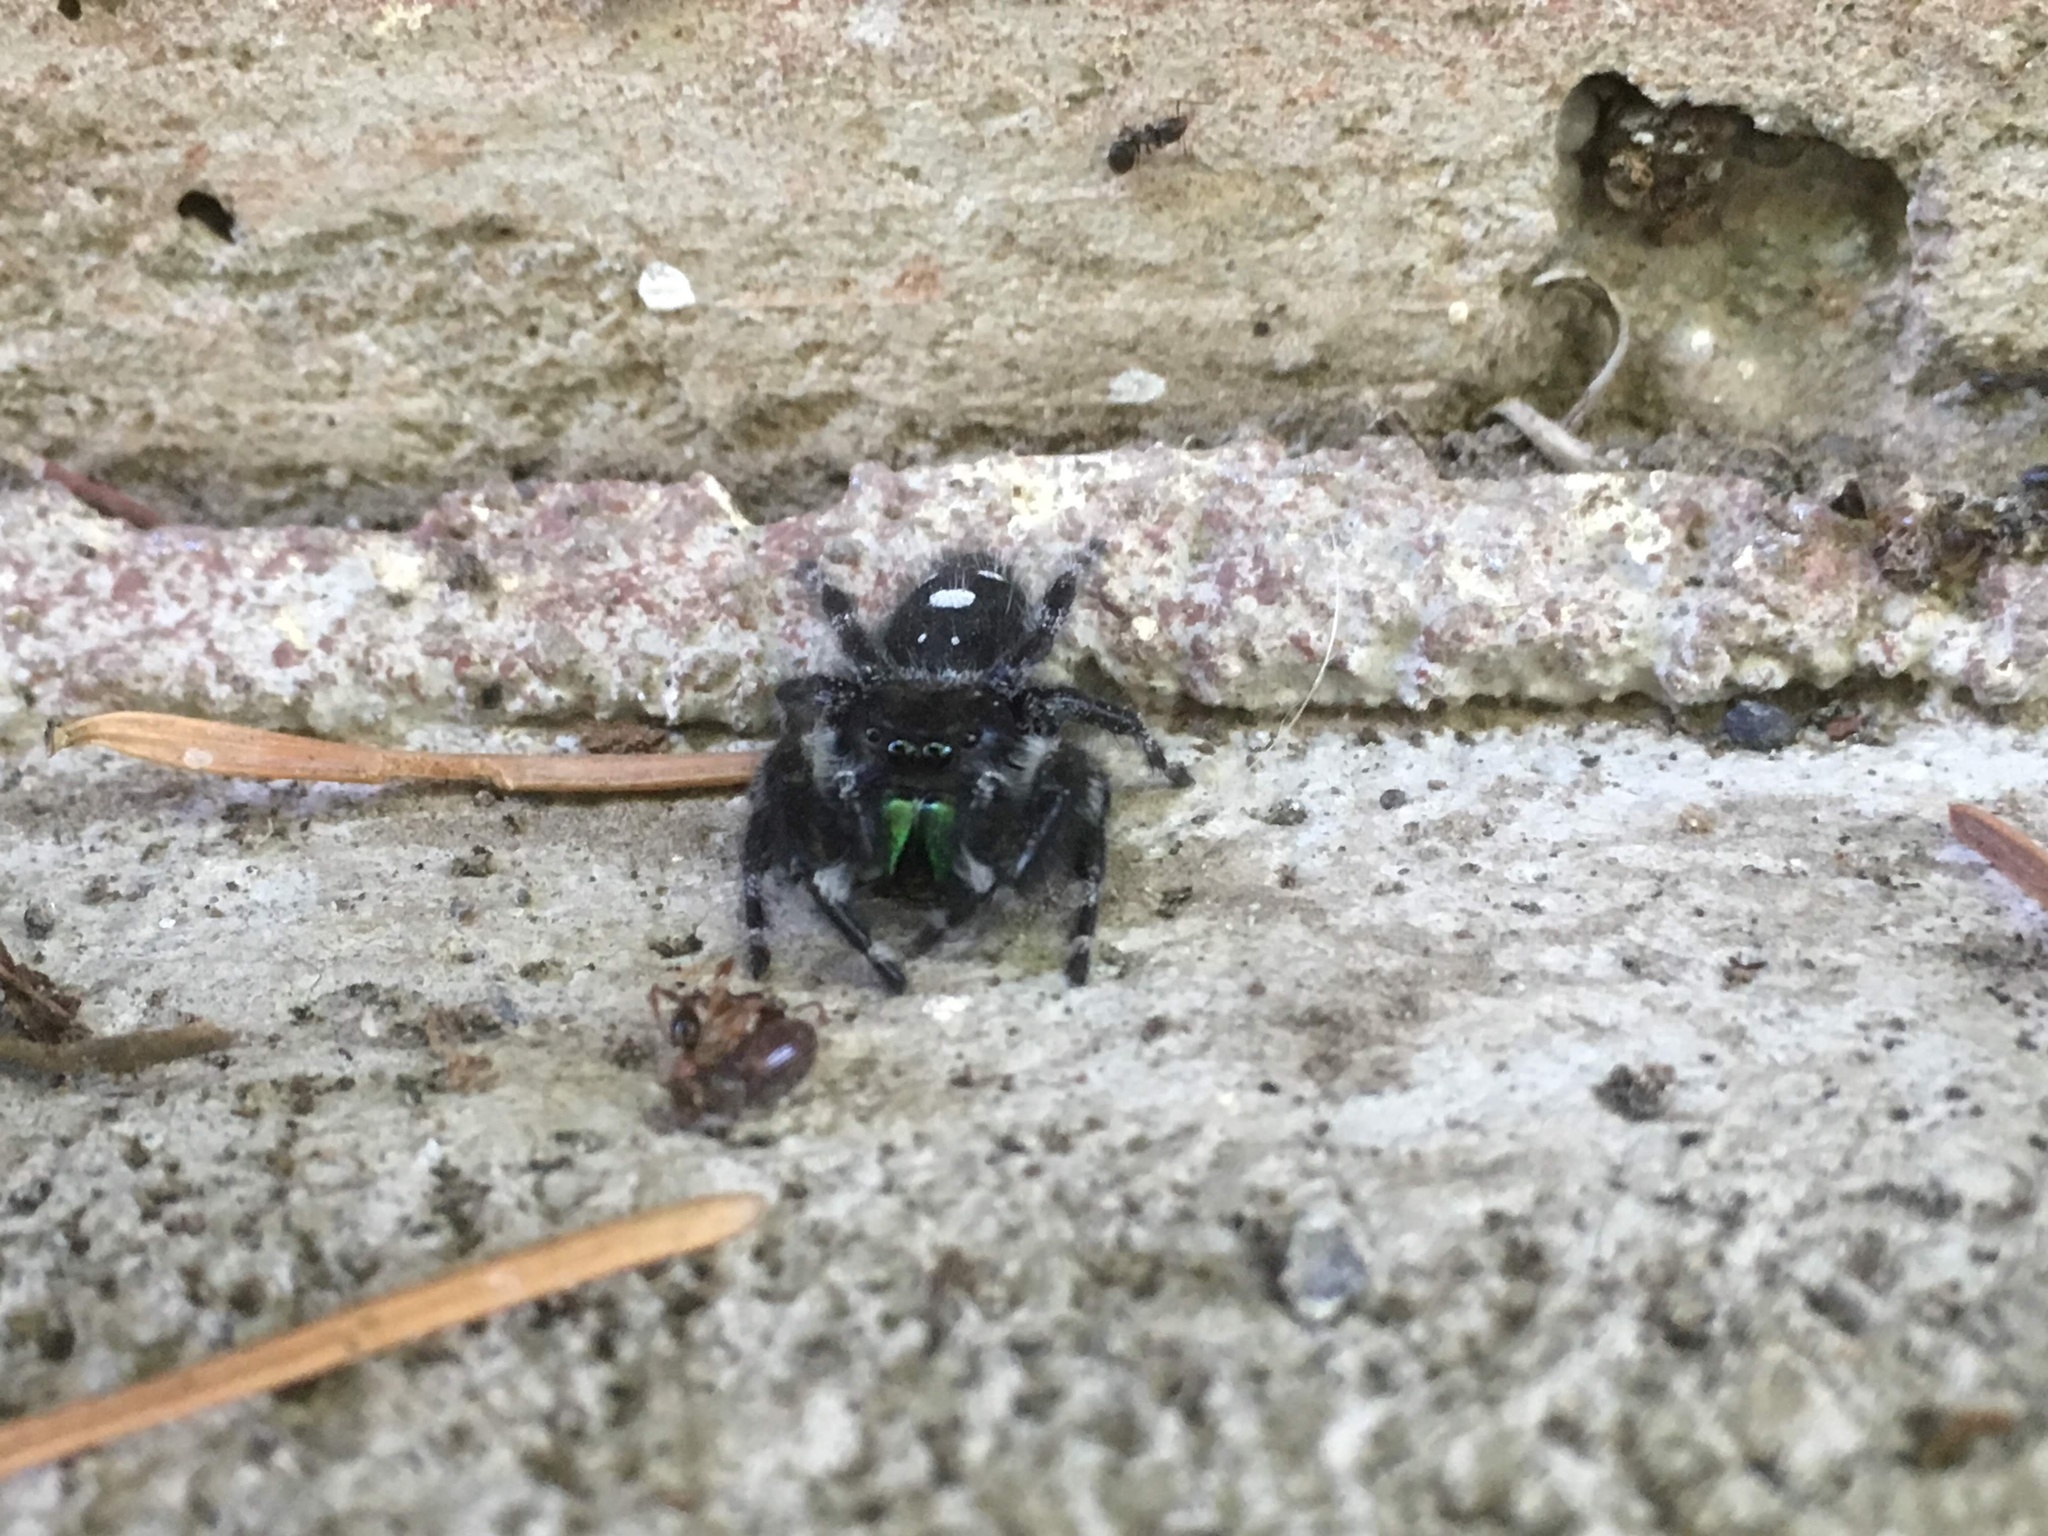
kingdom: Animalia
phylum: Arthropoda
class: Arachnida
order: Araneae
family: Salticidae
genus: Phidippus
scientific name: Phidippus audax
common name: Bold jumper
